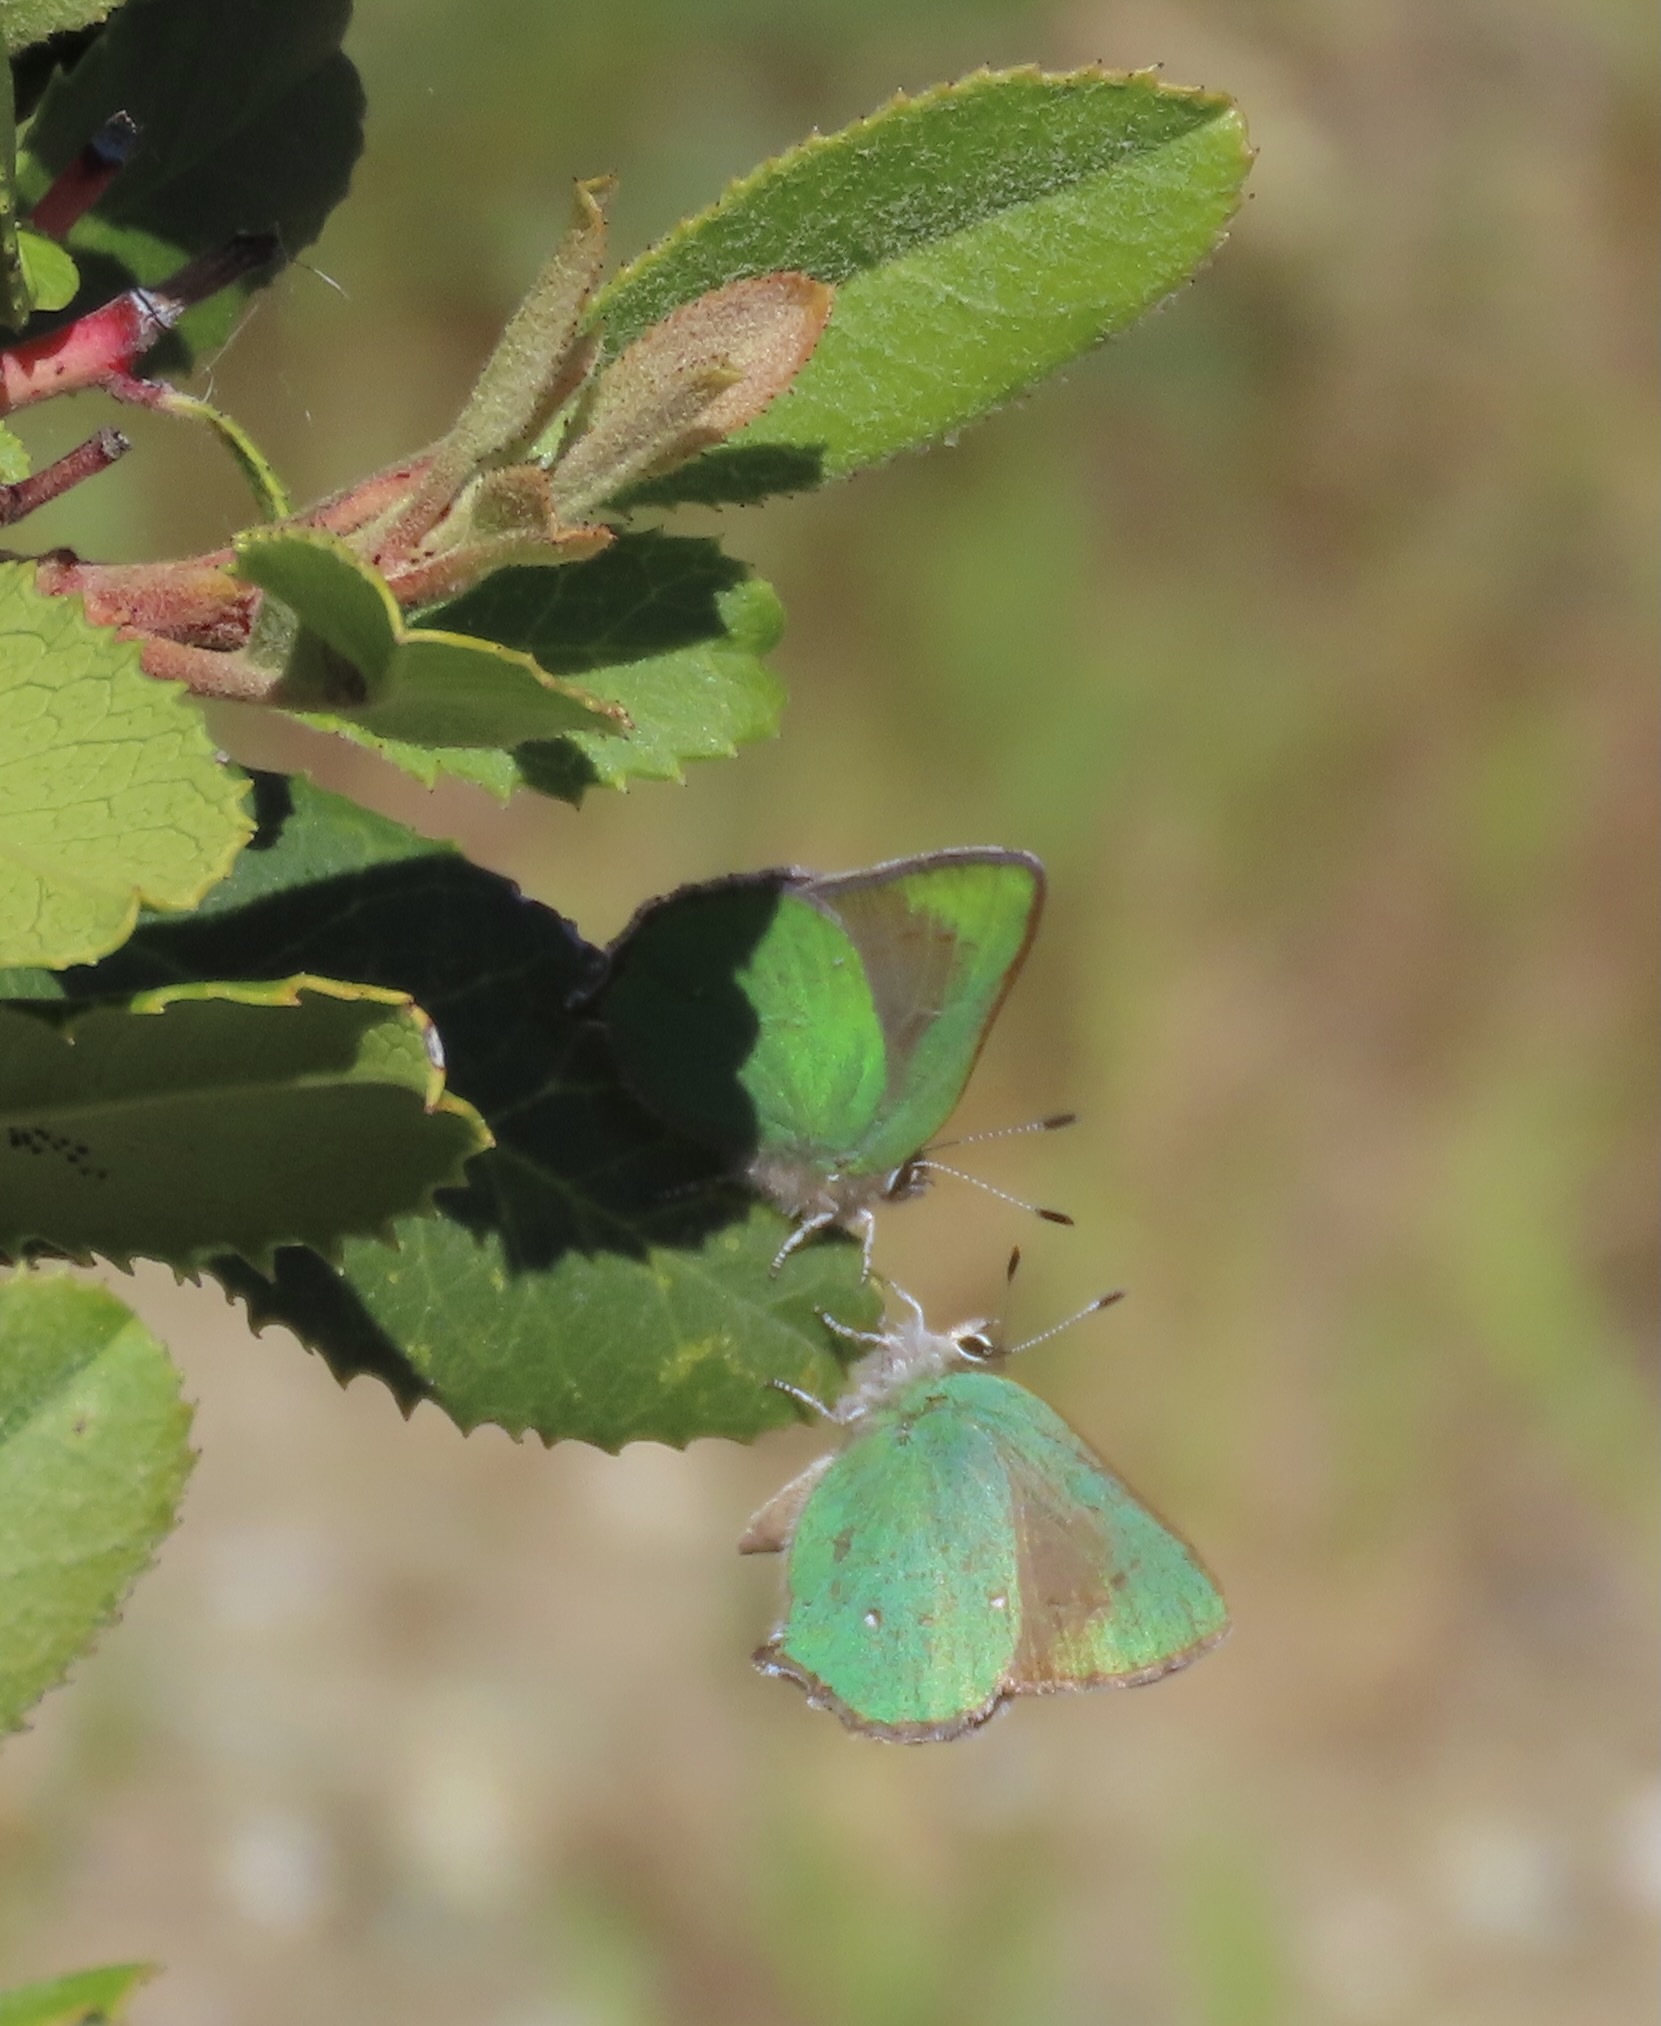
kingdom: Animalia
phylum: Arthropoda
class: Insecta
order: Lepidoptera
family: Lycaenidae
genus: Callophrys
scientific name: Callophrys dumetorum
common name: Bramble hairstreak
